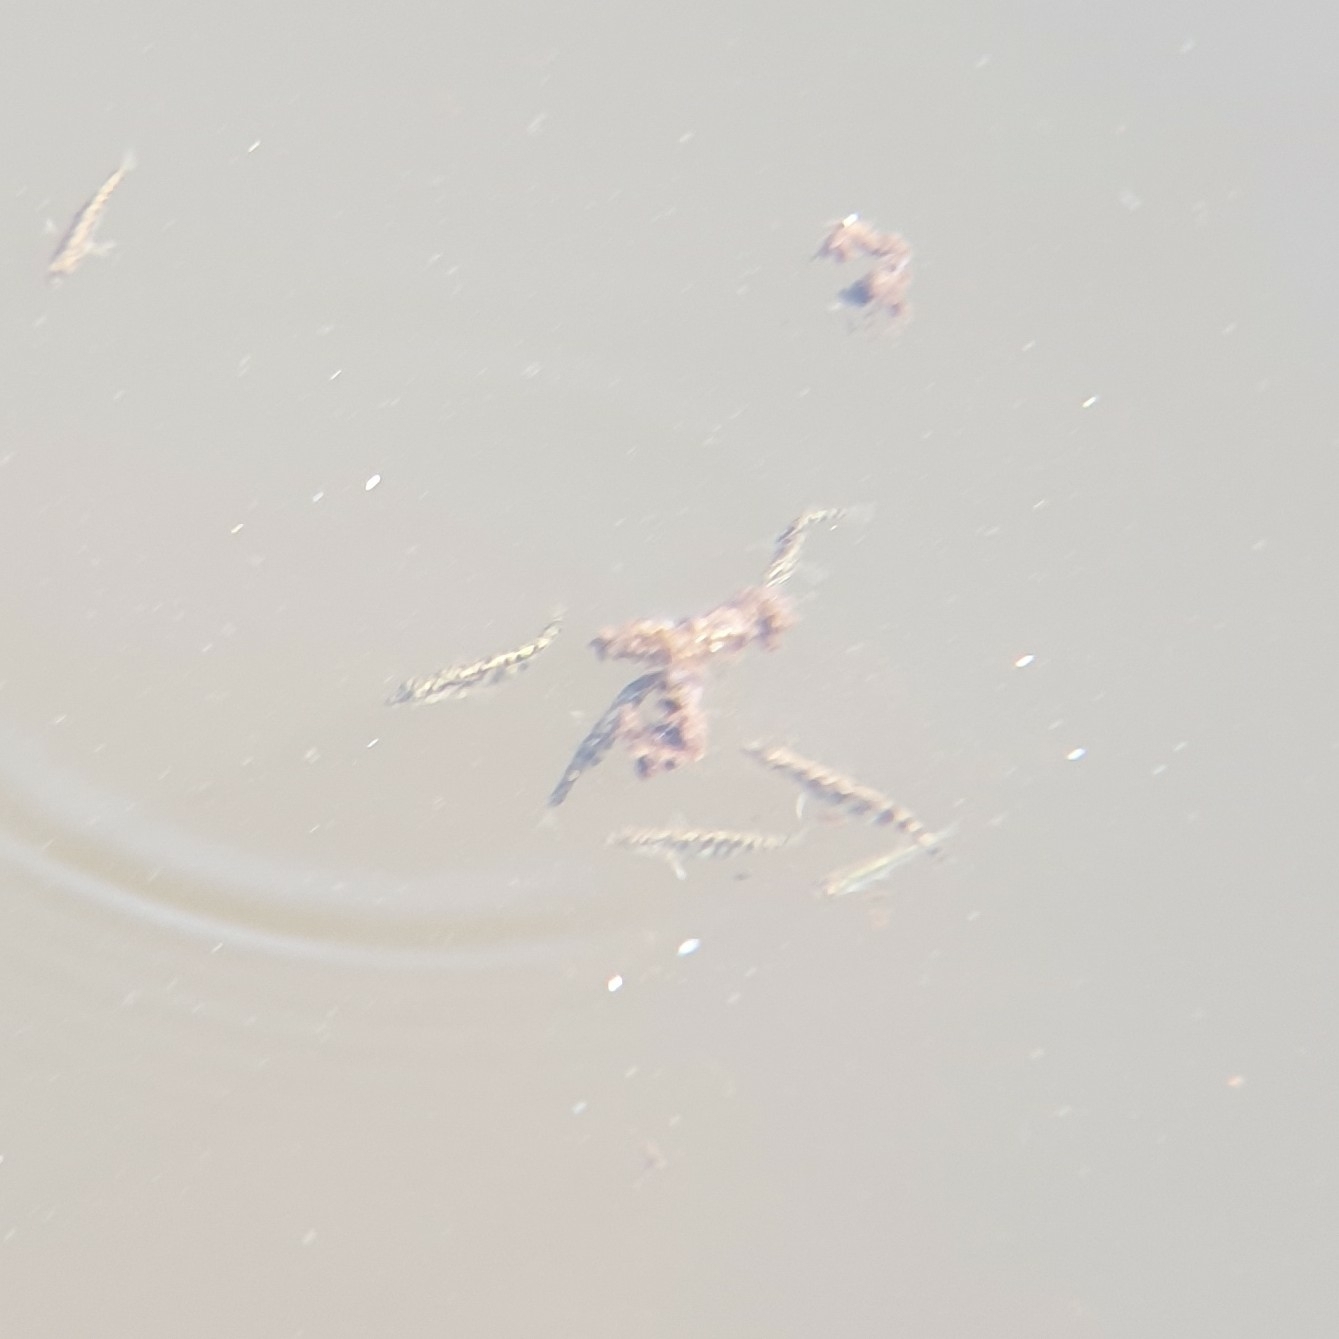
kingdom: Animalia
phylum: Chordata
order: Gasterosteiformes
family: Gasterosteidae
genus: Gasterosteus
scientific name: Gasterosteus aculeatus
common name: Three-spined stickleback
